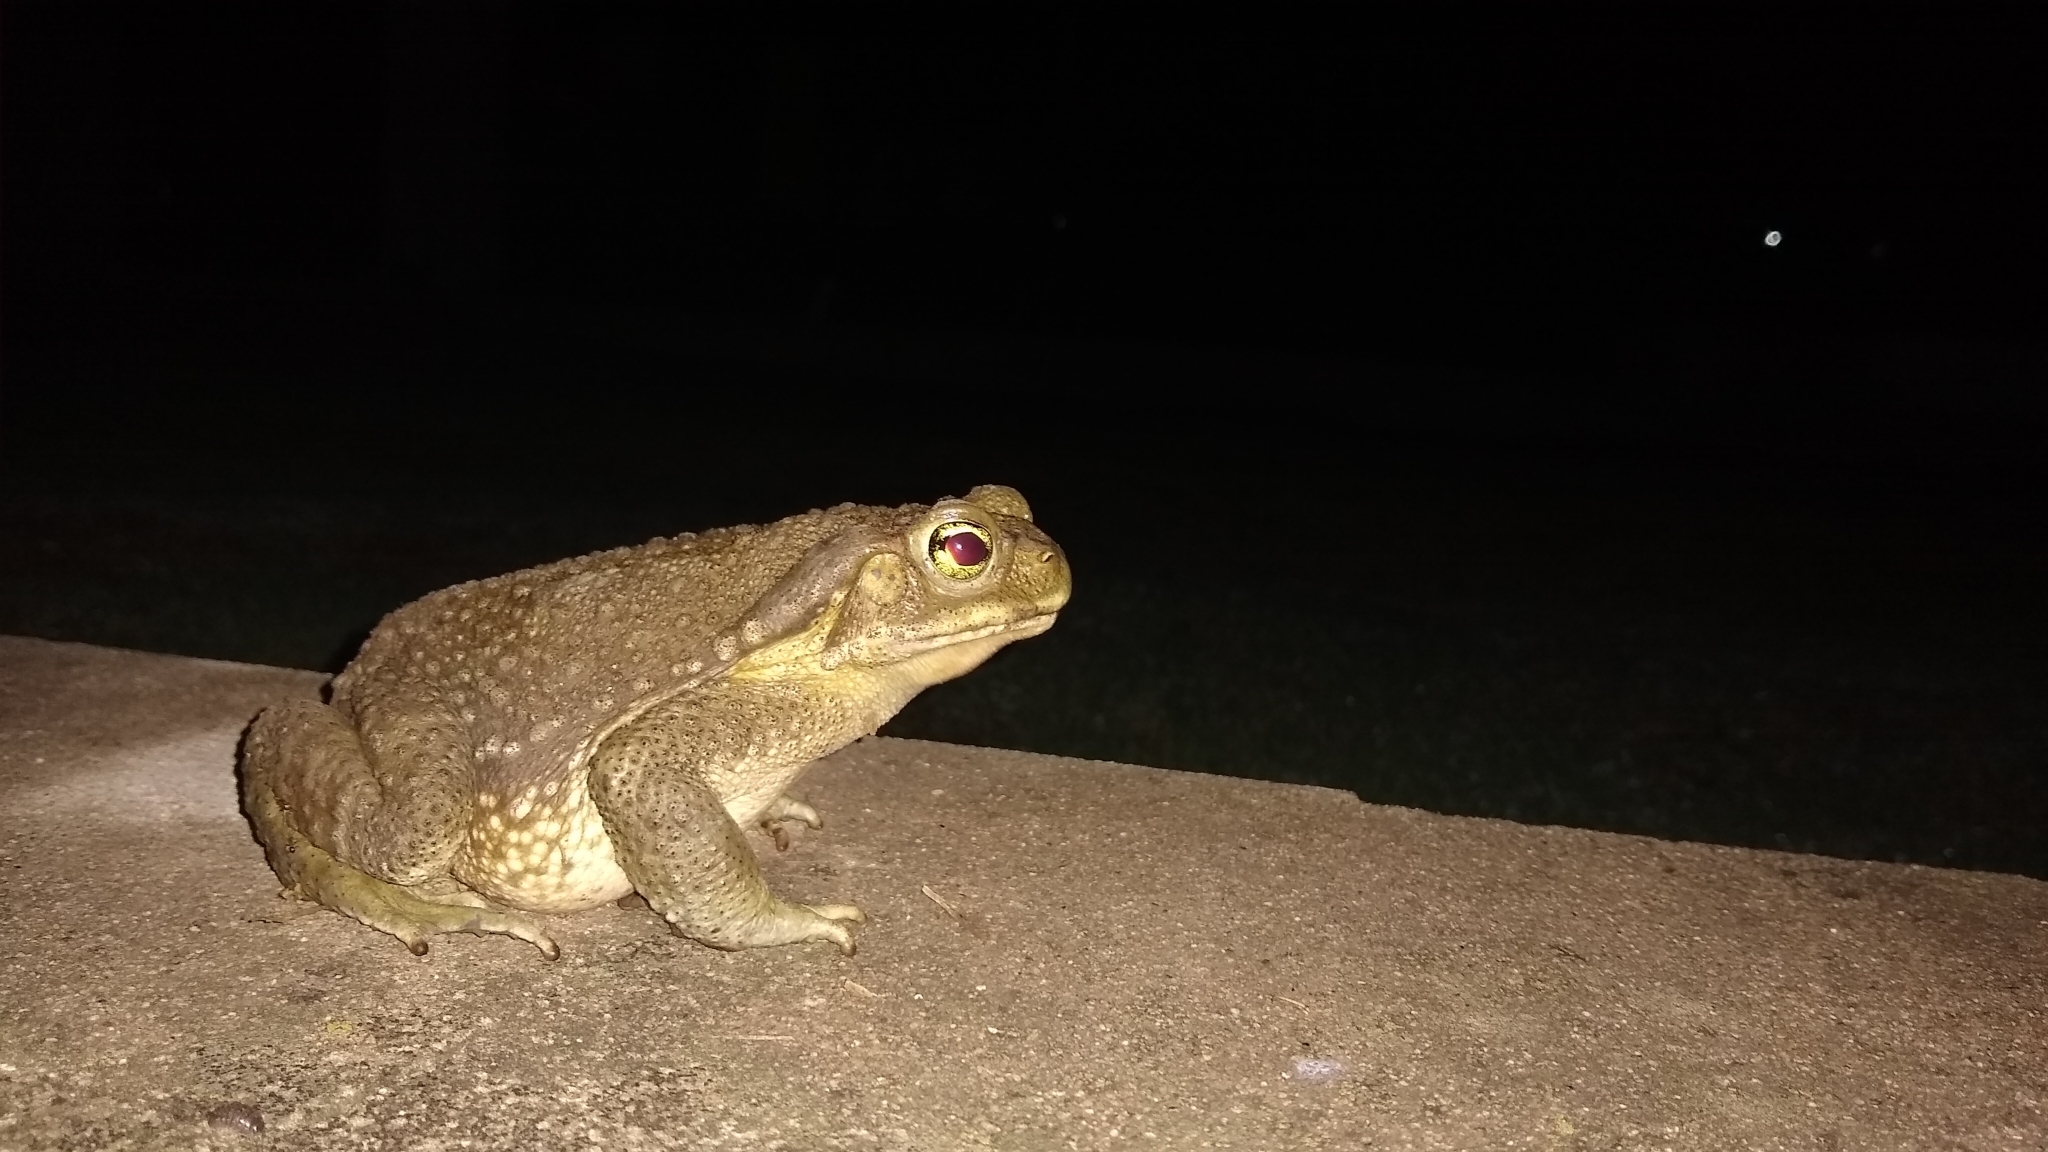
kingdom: Animalia
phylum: Chordata
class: Amphibia
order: Anura
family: Bufonidae
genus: Rhinella
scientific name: Rhinella arenarum
